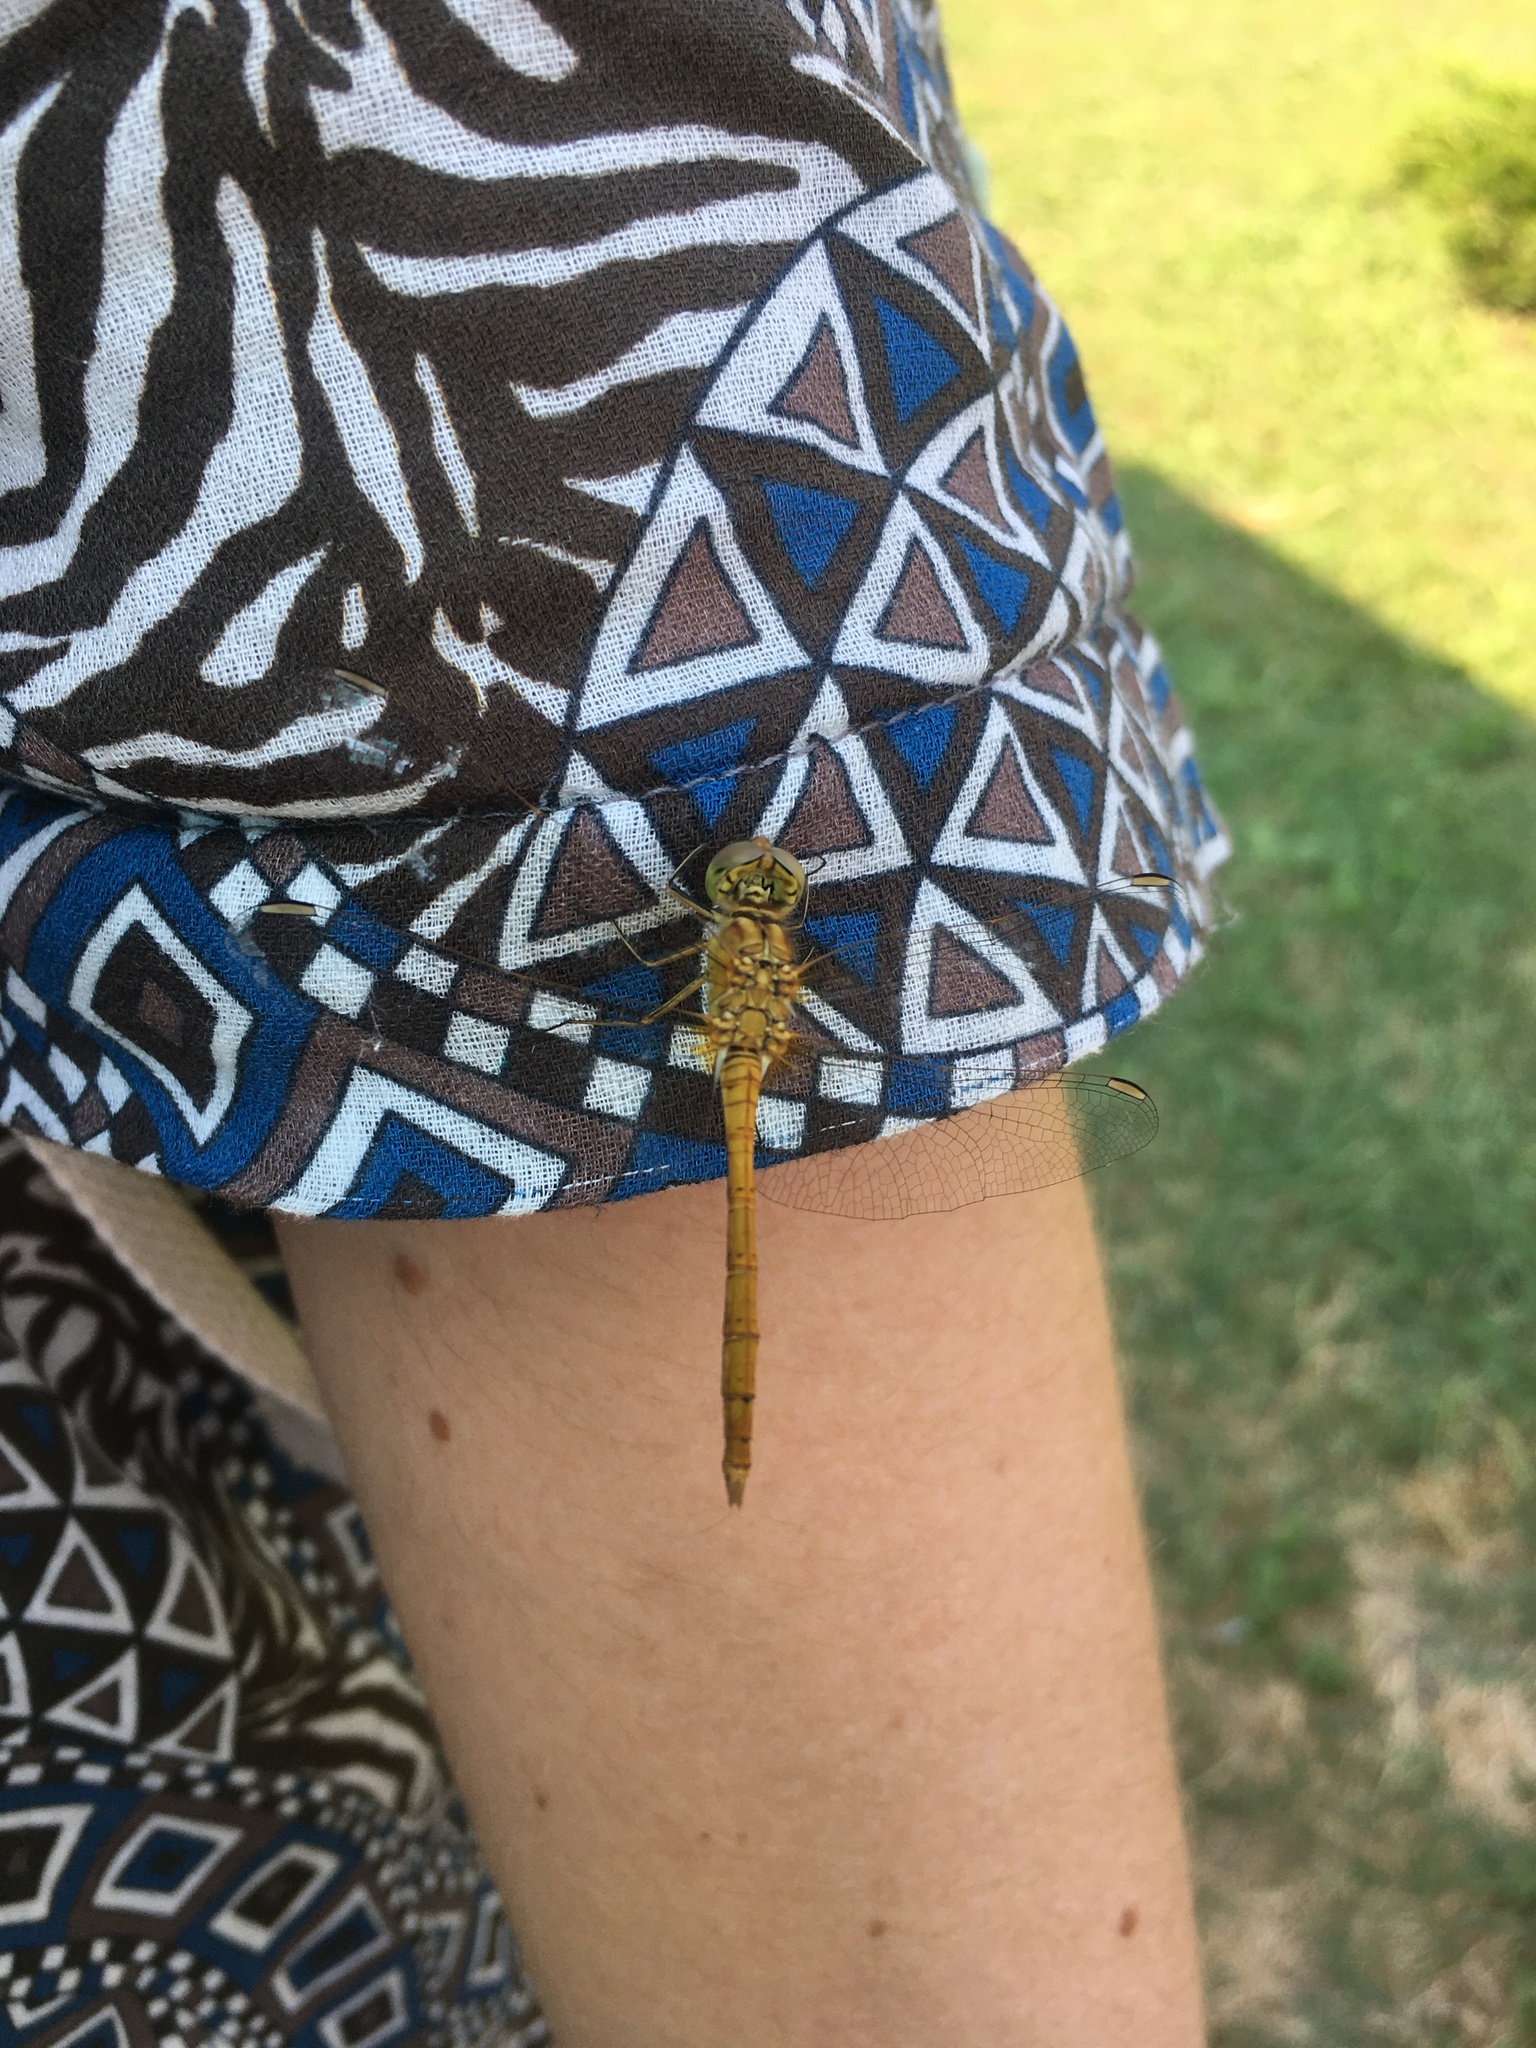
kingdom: Animalia
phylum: Arthropoda
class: Insecta
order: Odonata
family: Libellulidae
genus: Sympetrum
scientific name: Sympetrum meridionale
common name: Southern darter
